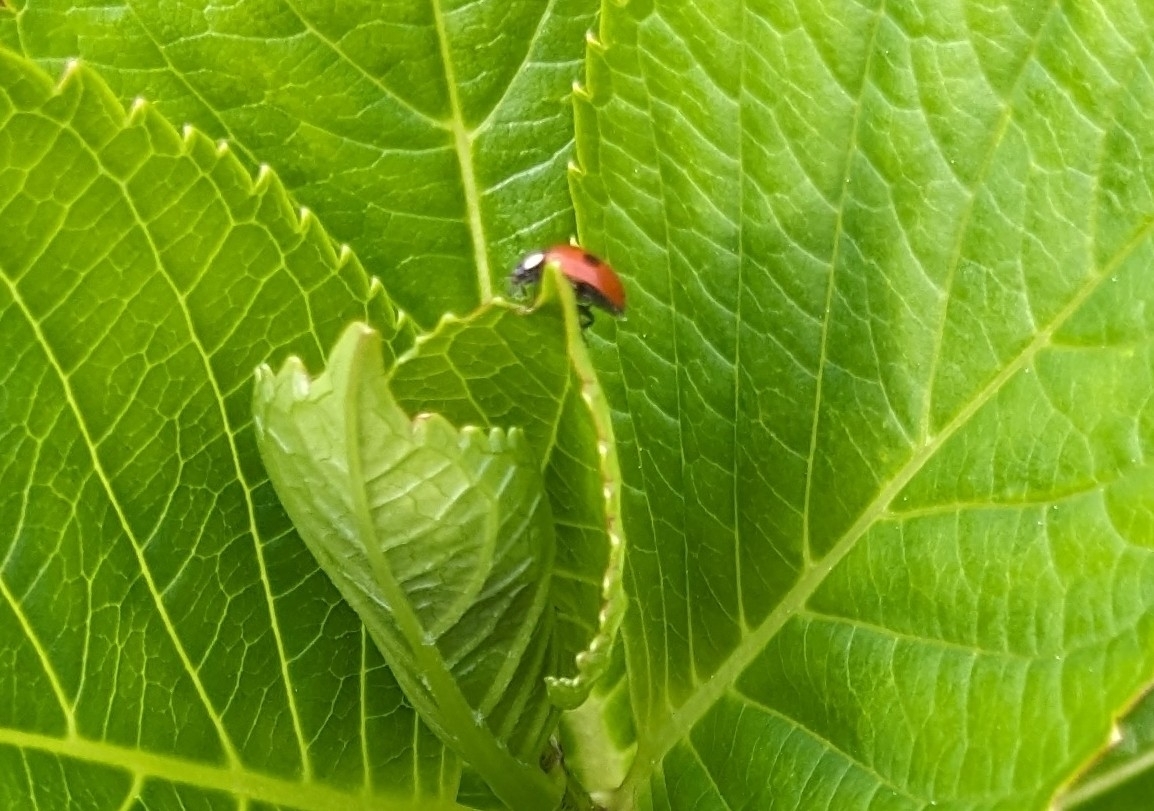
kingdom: Animalia
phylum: Arthropoda
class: Insecta
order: Coleoptera
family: Coccinellidae
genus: Adalia
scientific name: Adalia bipunctata
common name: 2-spot ladybird
